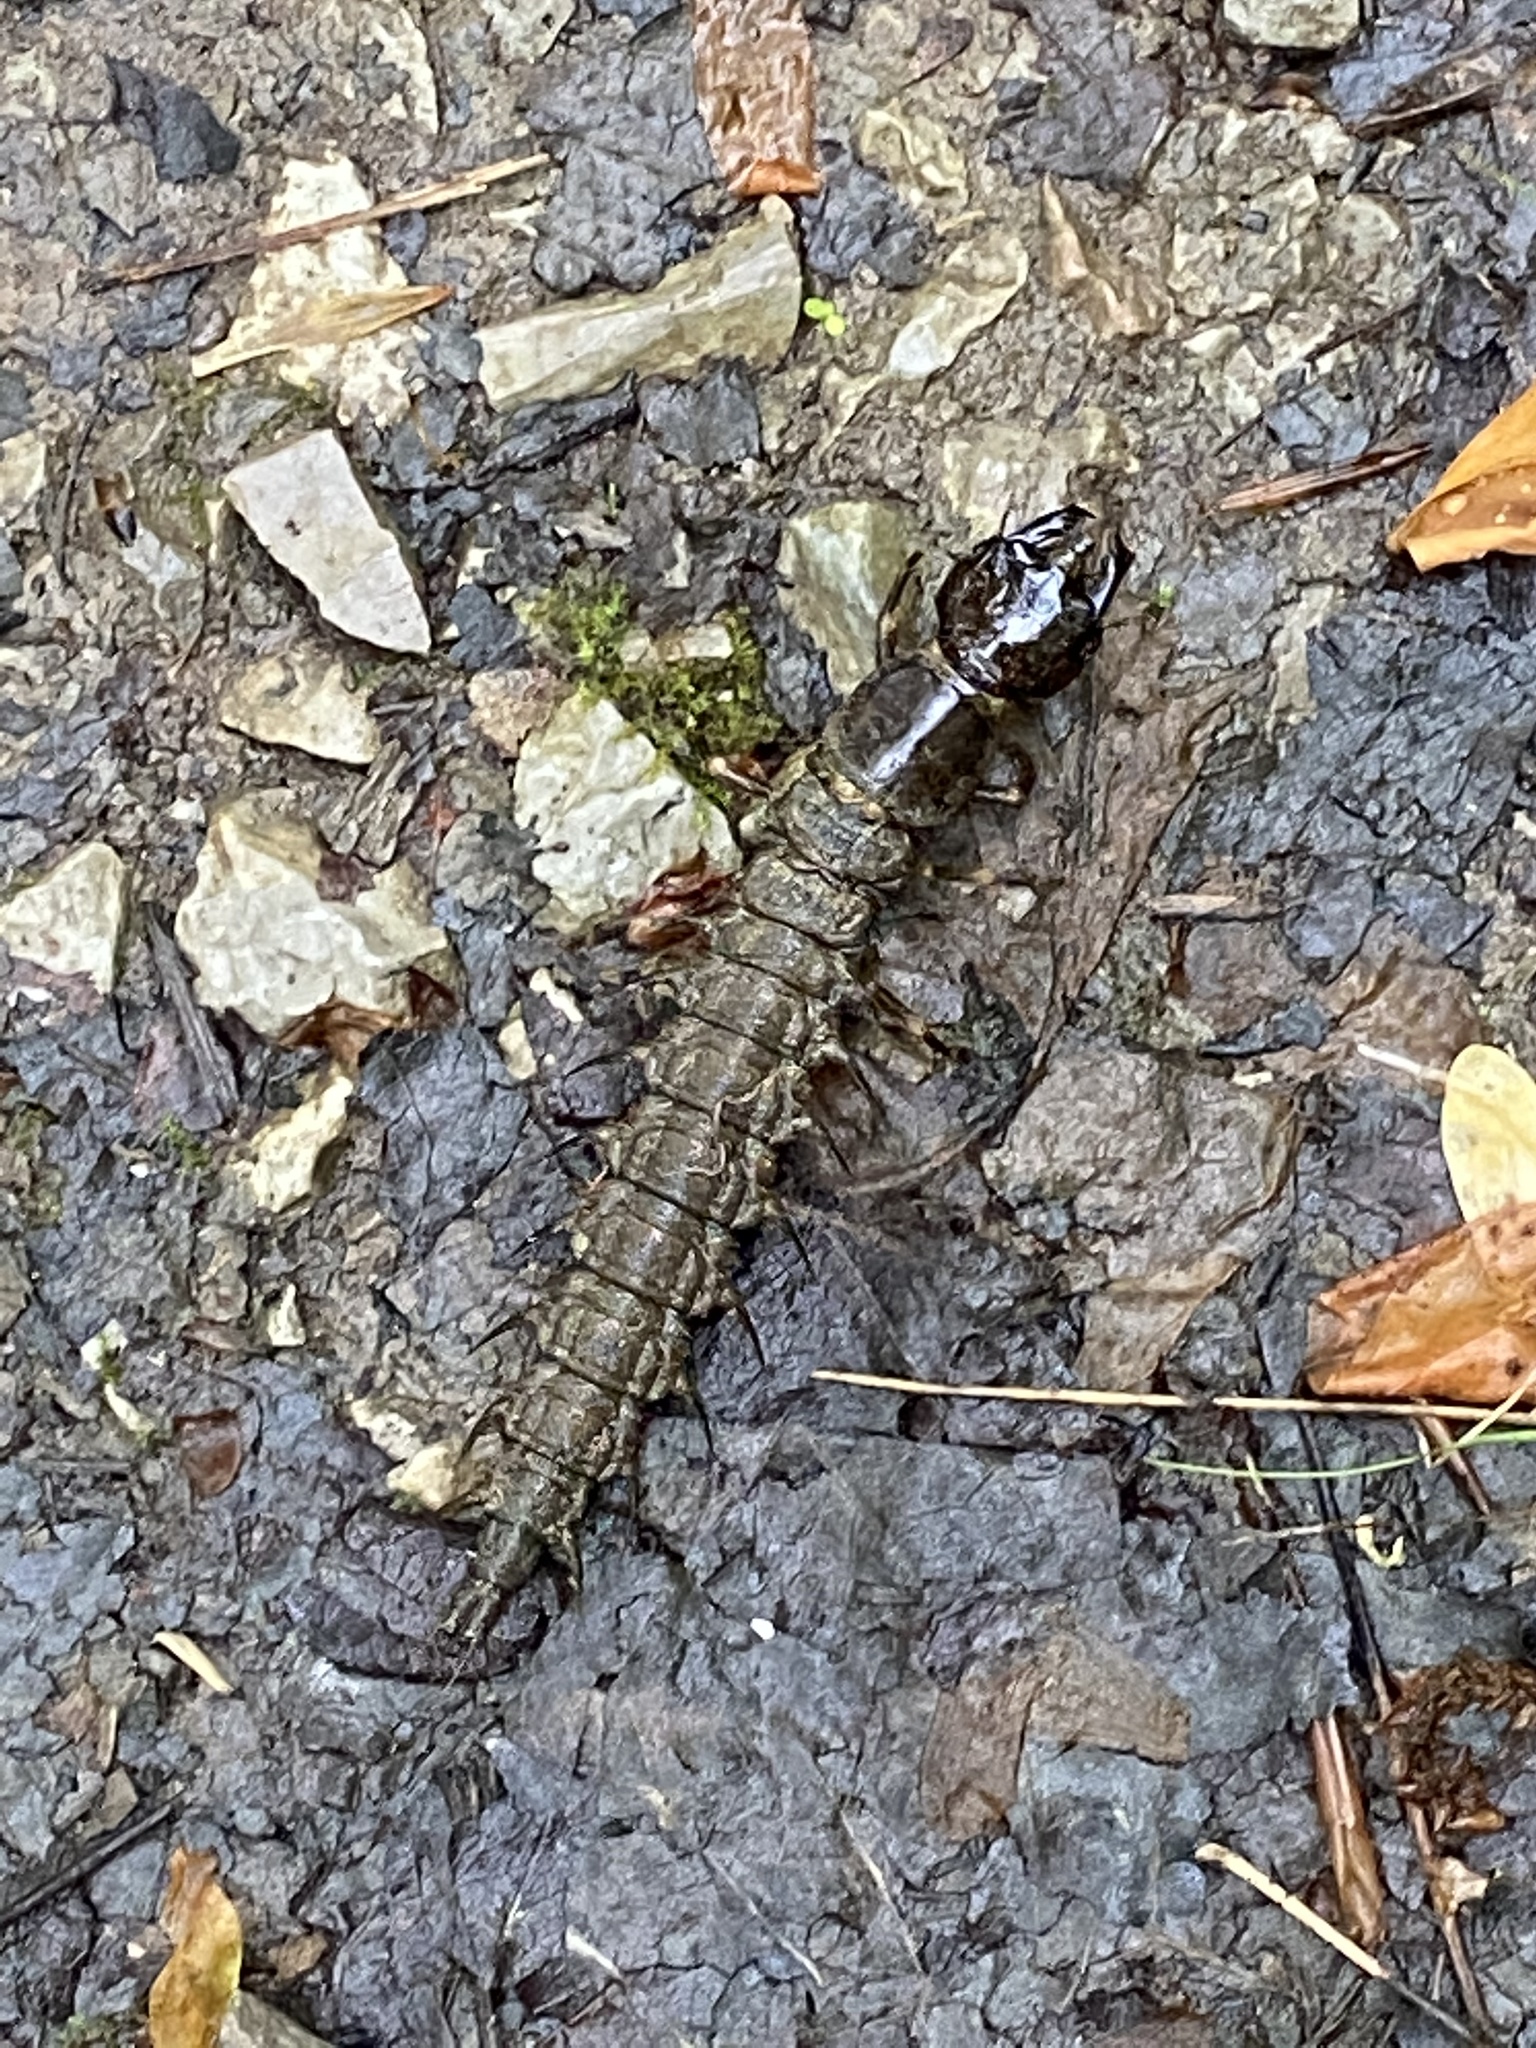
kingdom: Animalia
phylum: Arthropoda
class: Insecta
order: Megaloptera
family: Corydalidae
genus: Corydalus
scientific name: Corydalus cornutus
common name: Dobsonfly
